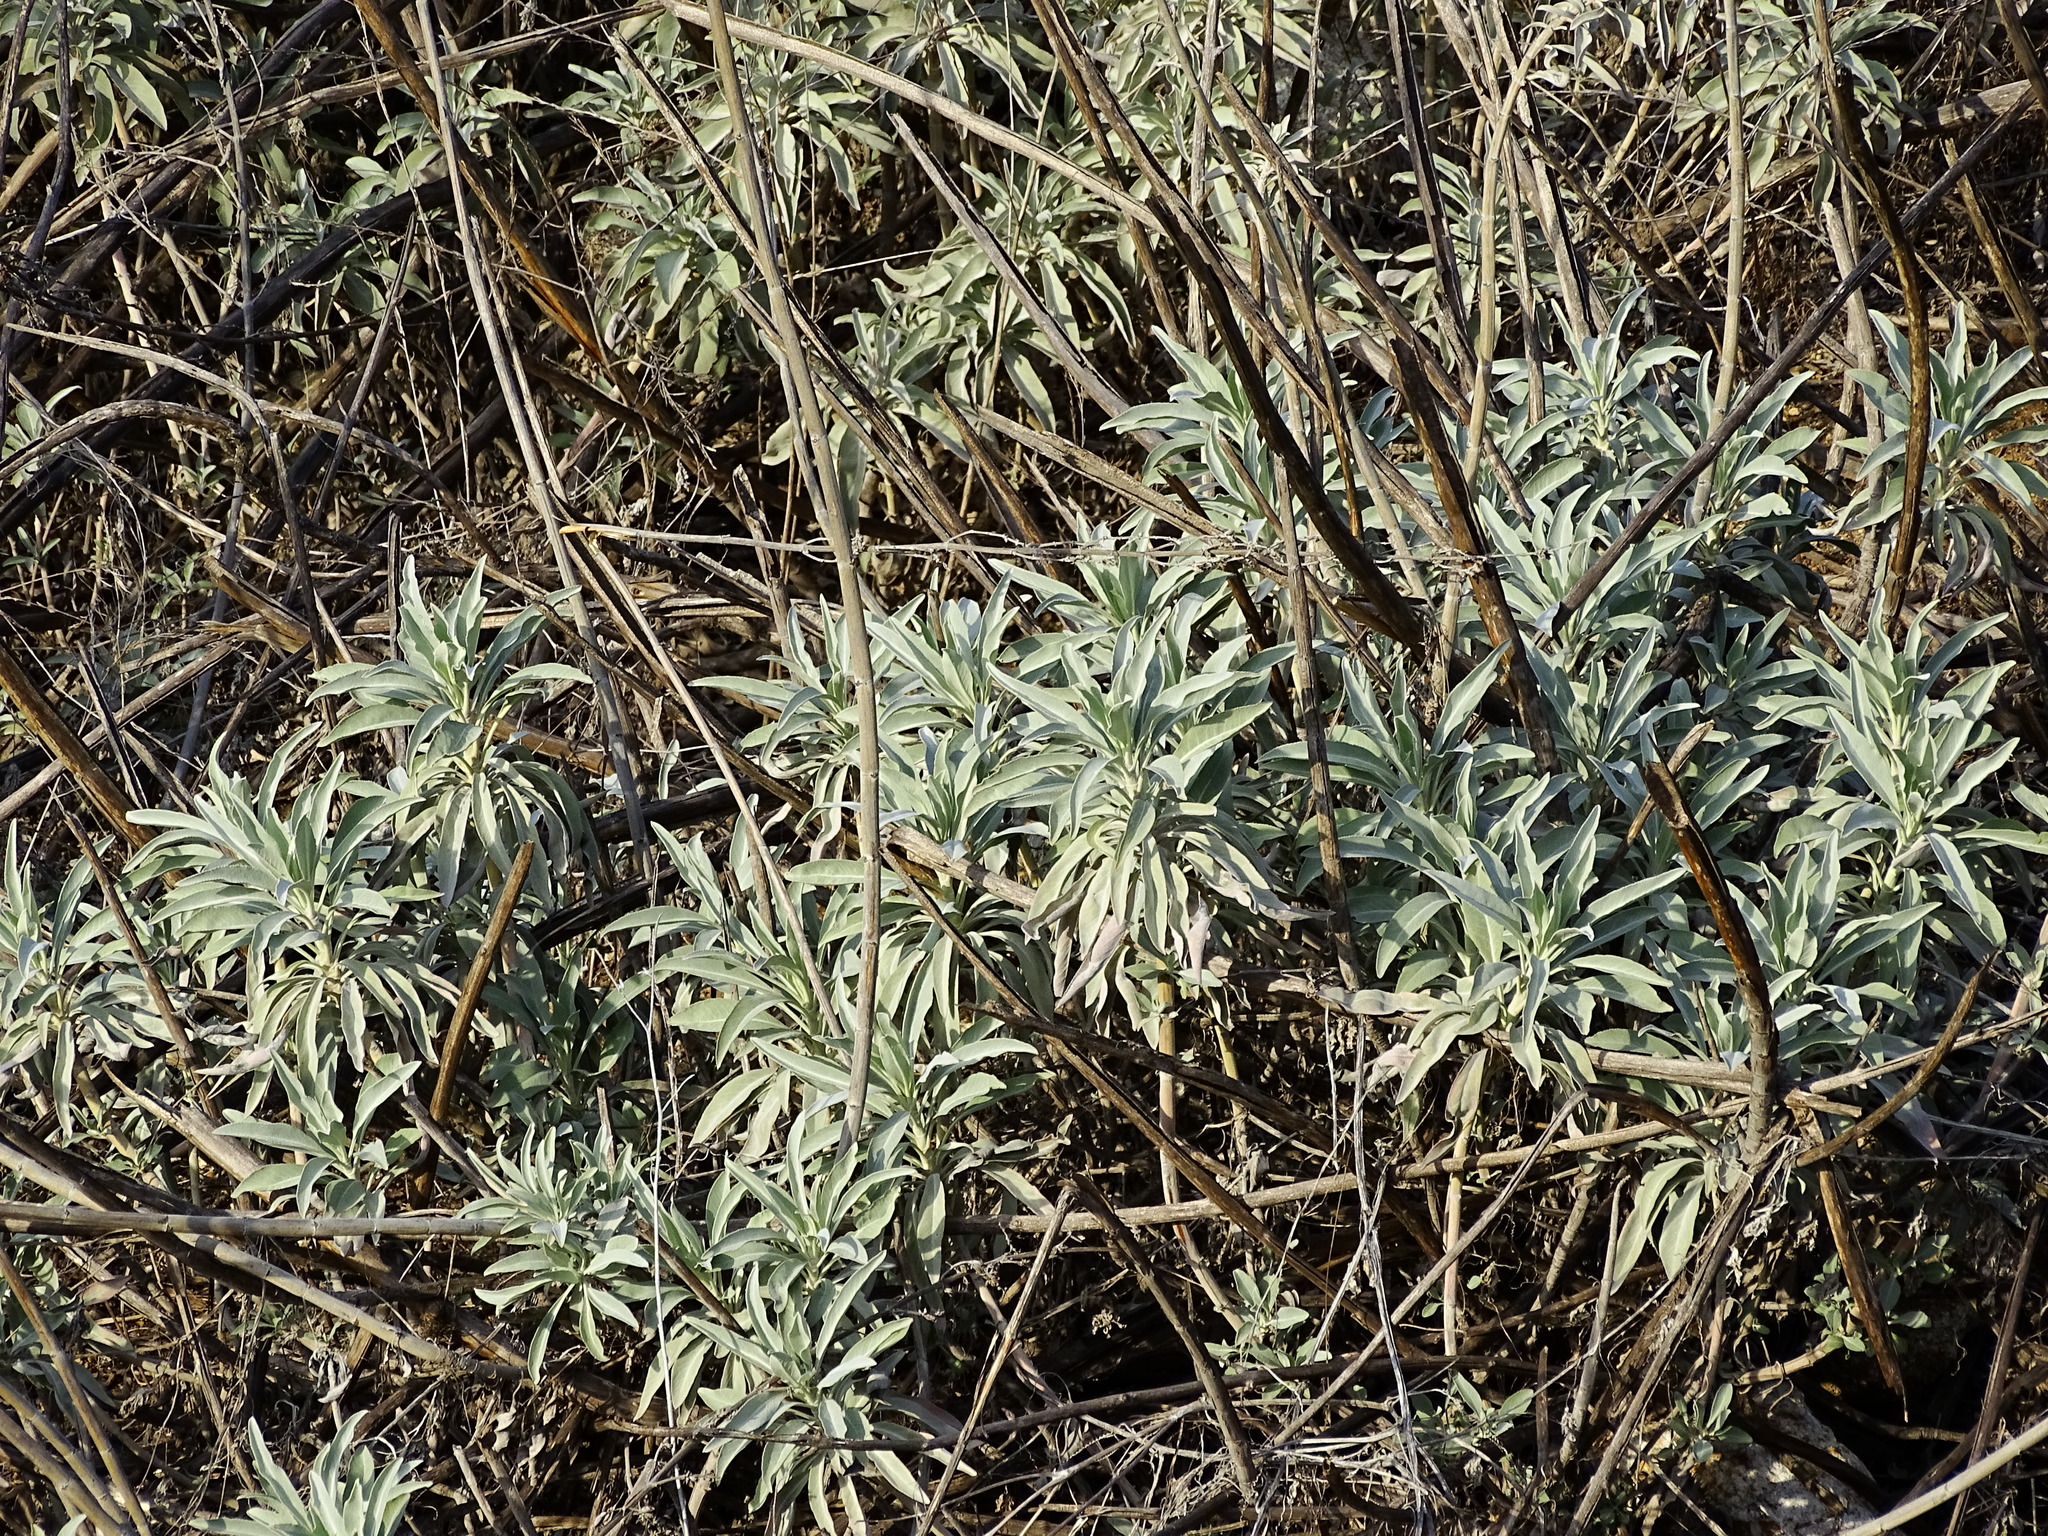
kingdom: Plantae
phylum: Tracheophyta
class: Magnoliopsida
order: Lamiales
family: Lamiaceae
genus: Salvia
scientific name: Salvia apiana
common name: White sage
